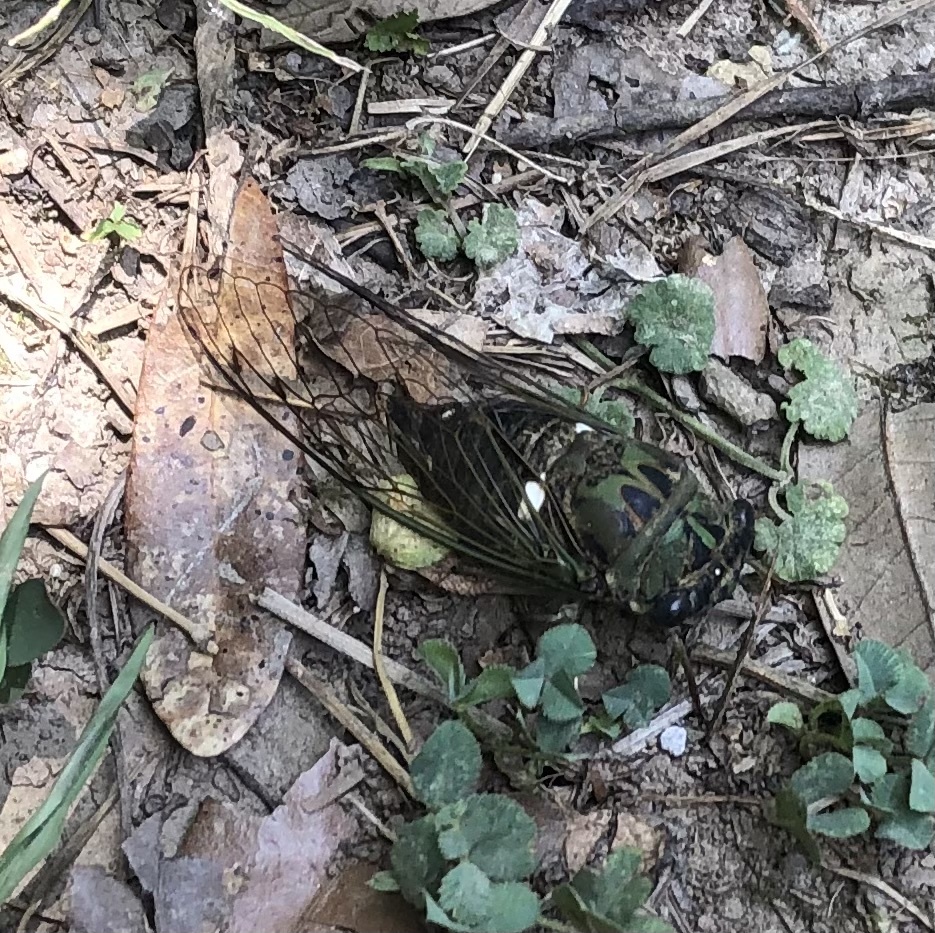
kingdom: Animalia
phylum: Arthropoda
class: Insecta
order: Hemiptera
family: Cicadidae
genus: Neotibicen
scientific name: Neotibicen pruinosus
